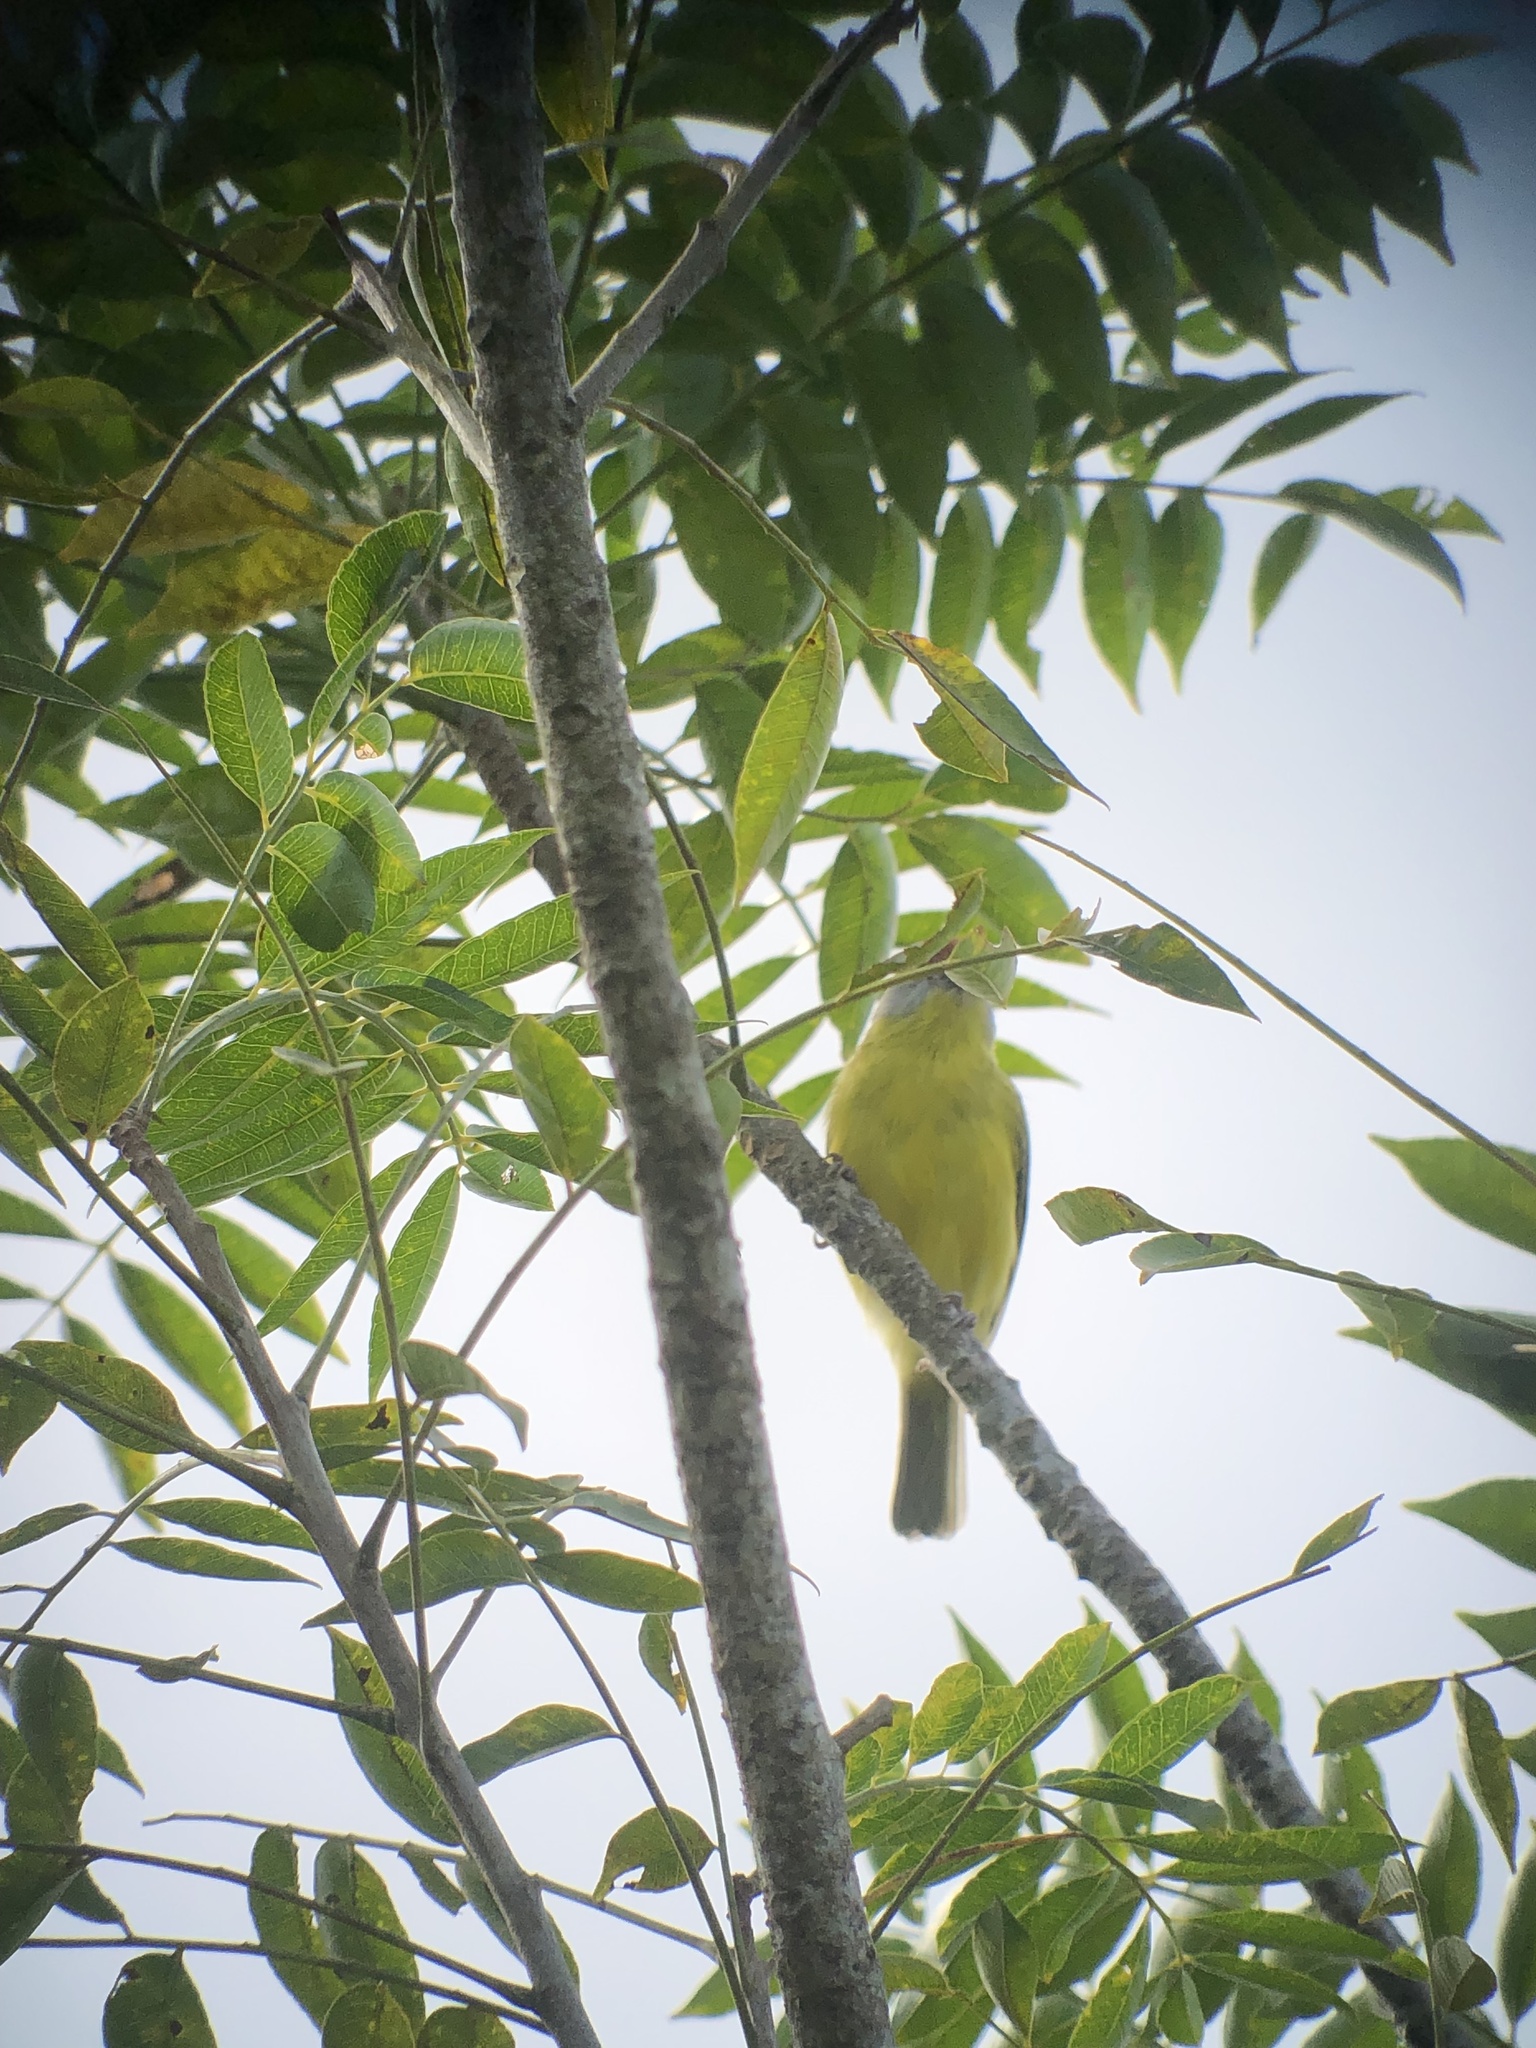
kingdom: Animalia
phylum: Chordata
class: Aves
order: Passeriformes
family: Vireonidae
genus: Cyclarhis
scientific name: Cyclarhis gujanensis
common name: Rufous-browed peppershrike
